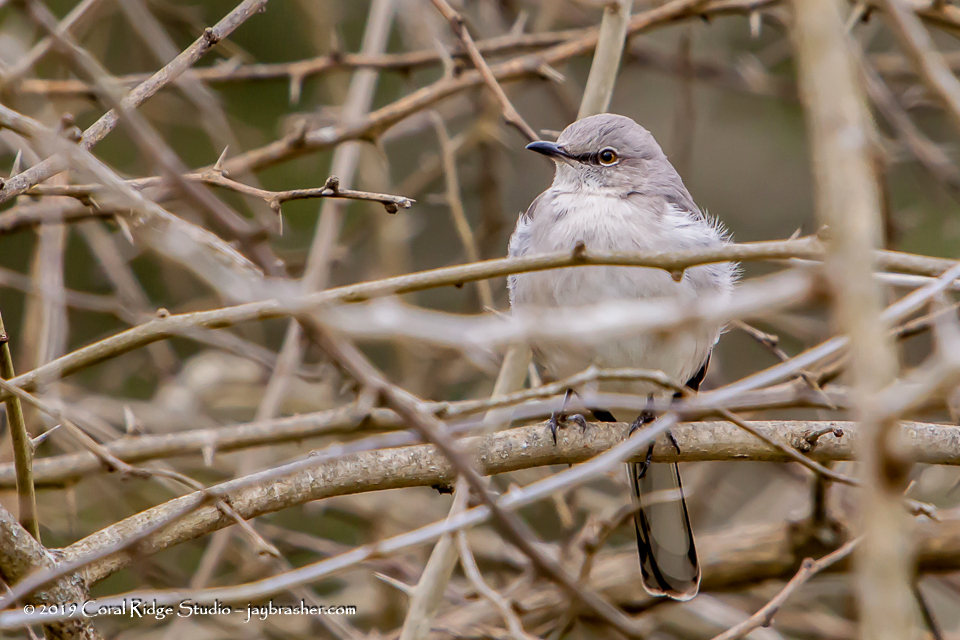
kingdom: Animalia
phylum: Chordata
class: Aves
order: Passeriformes
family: Mimidae
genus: Mimus
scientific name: Mimus polyglottos
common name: Northern mockingbird
